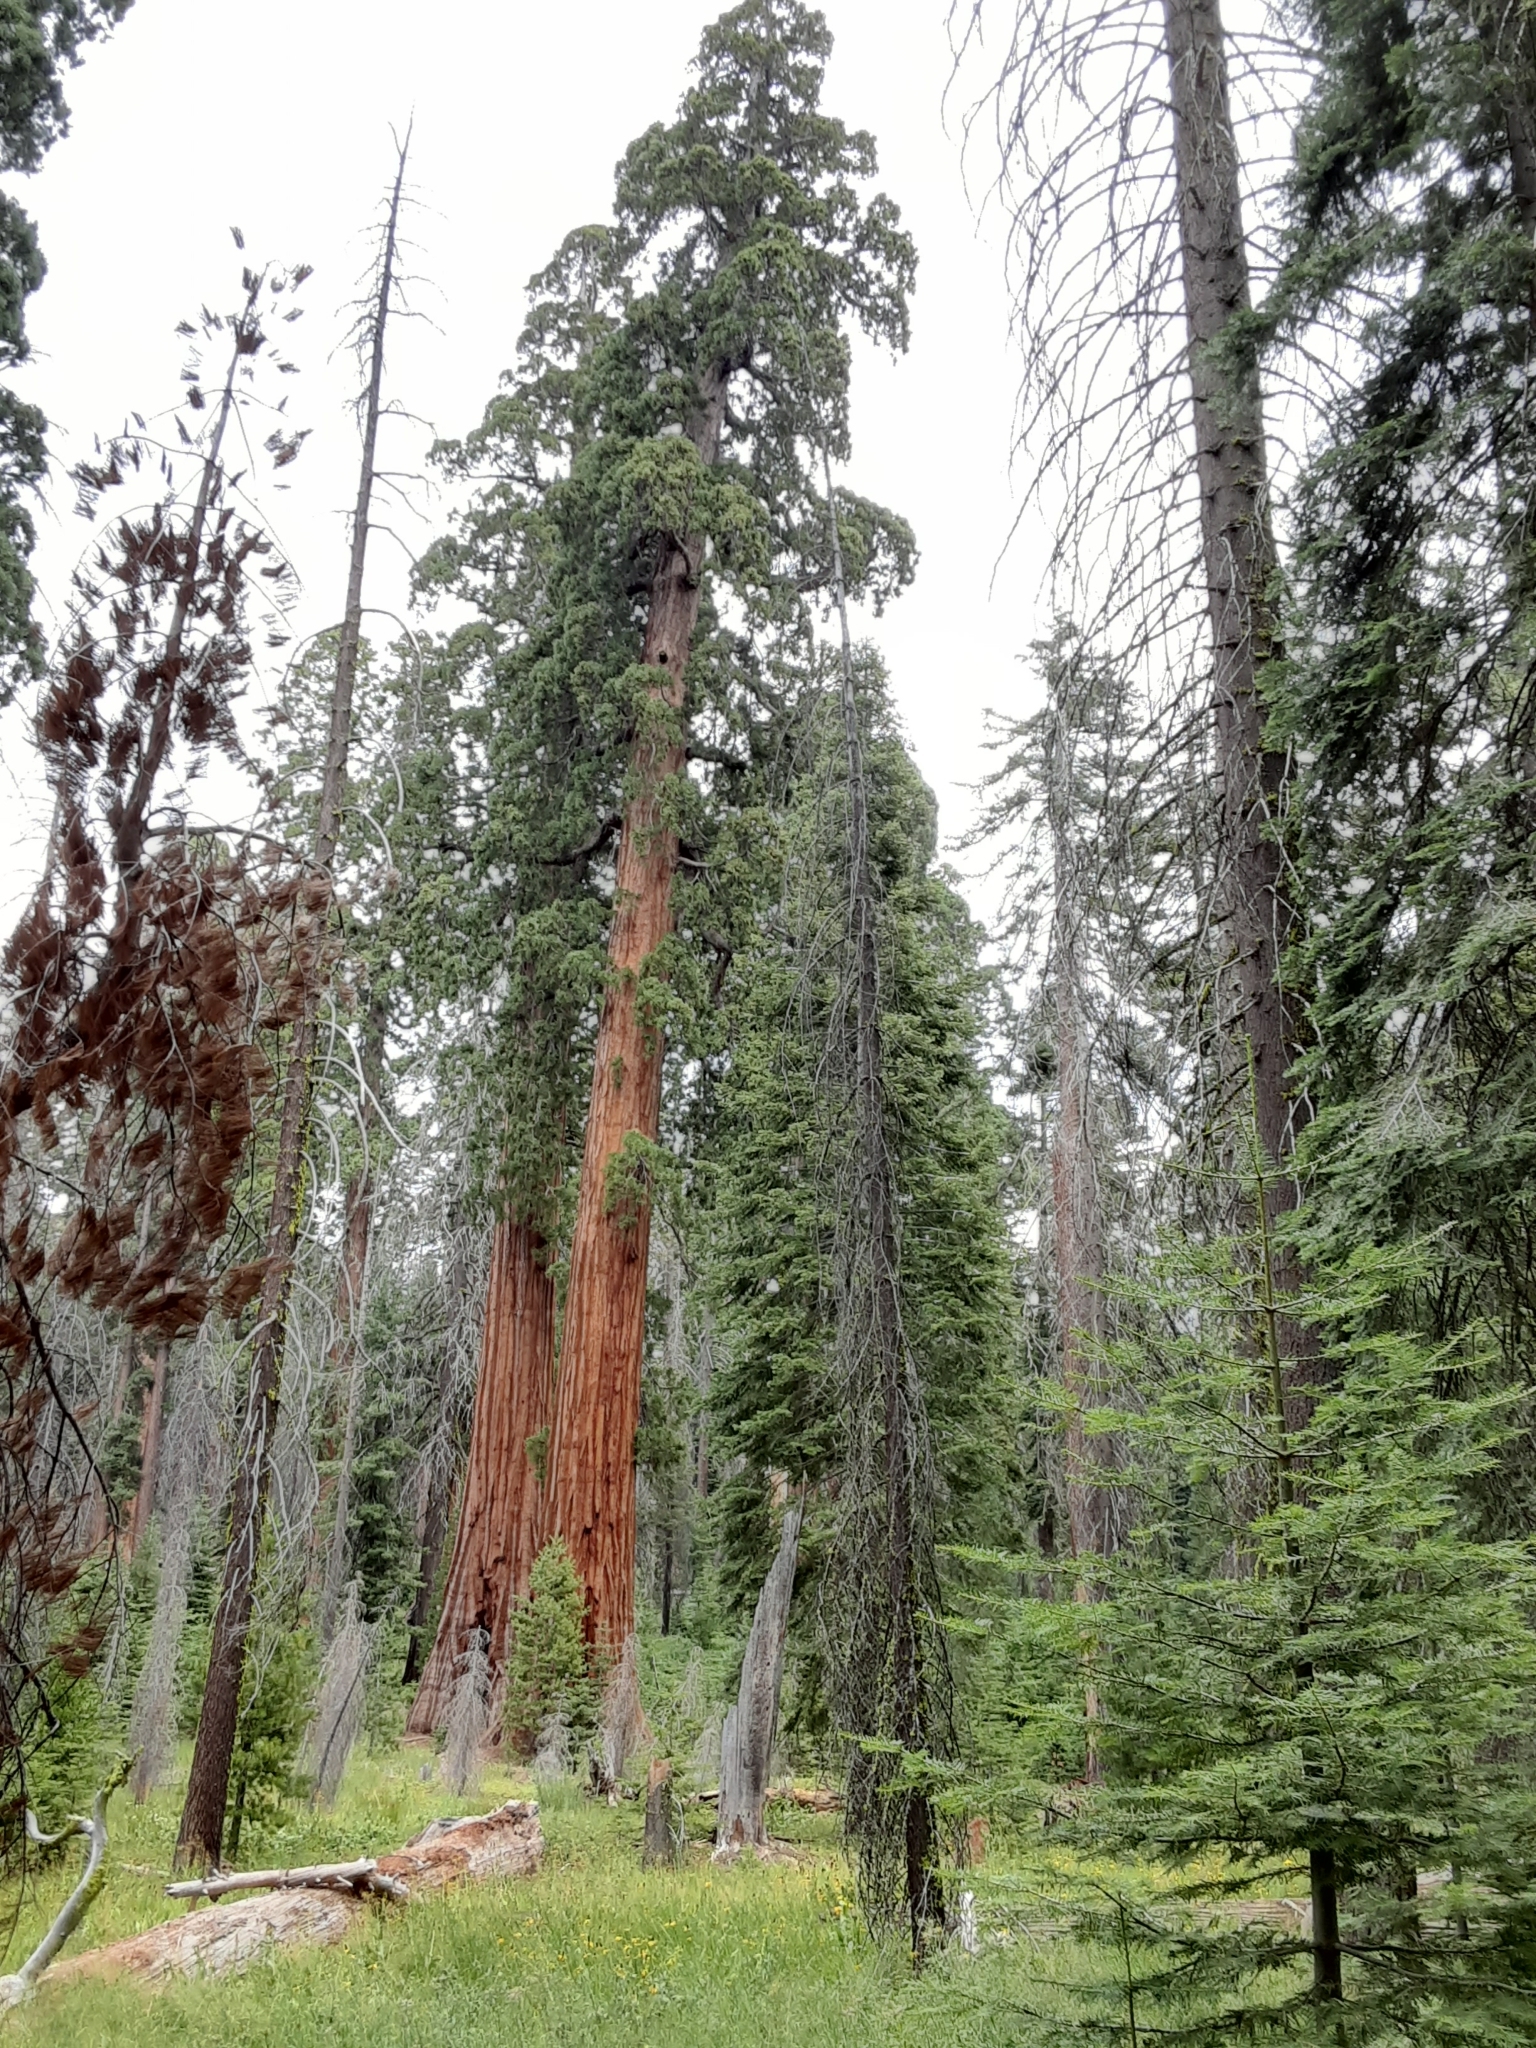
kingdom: Plantae
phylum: Tracheophyta
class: Pinopsida
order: Pinales
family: Cupressaceae
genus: Sequoiadendron
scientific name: Sequoiadendron giganteum
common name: Wellingtonia
